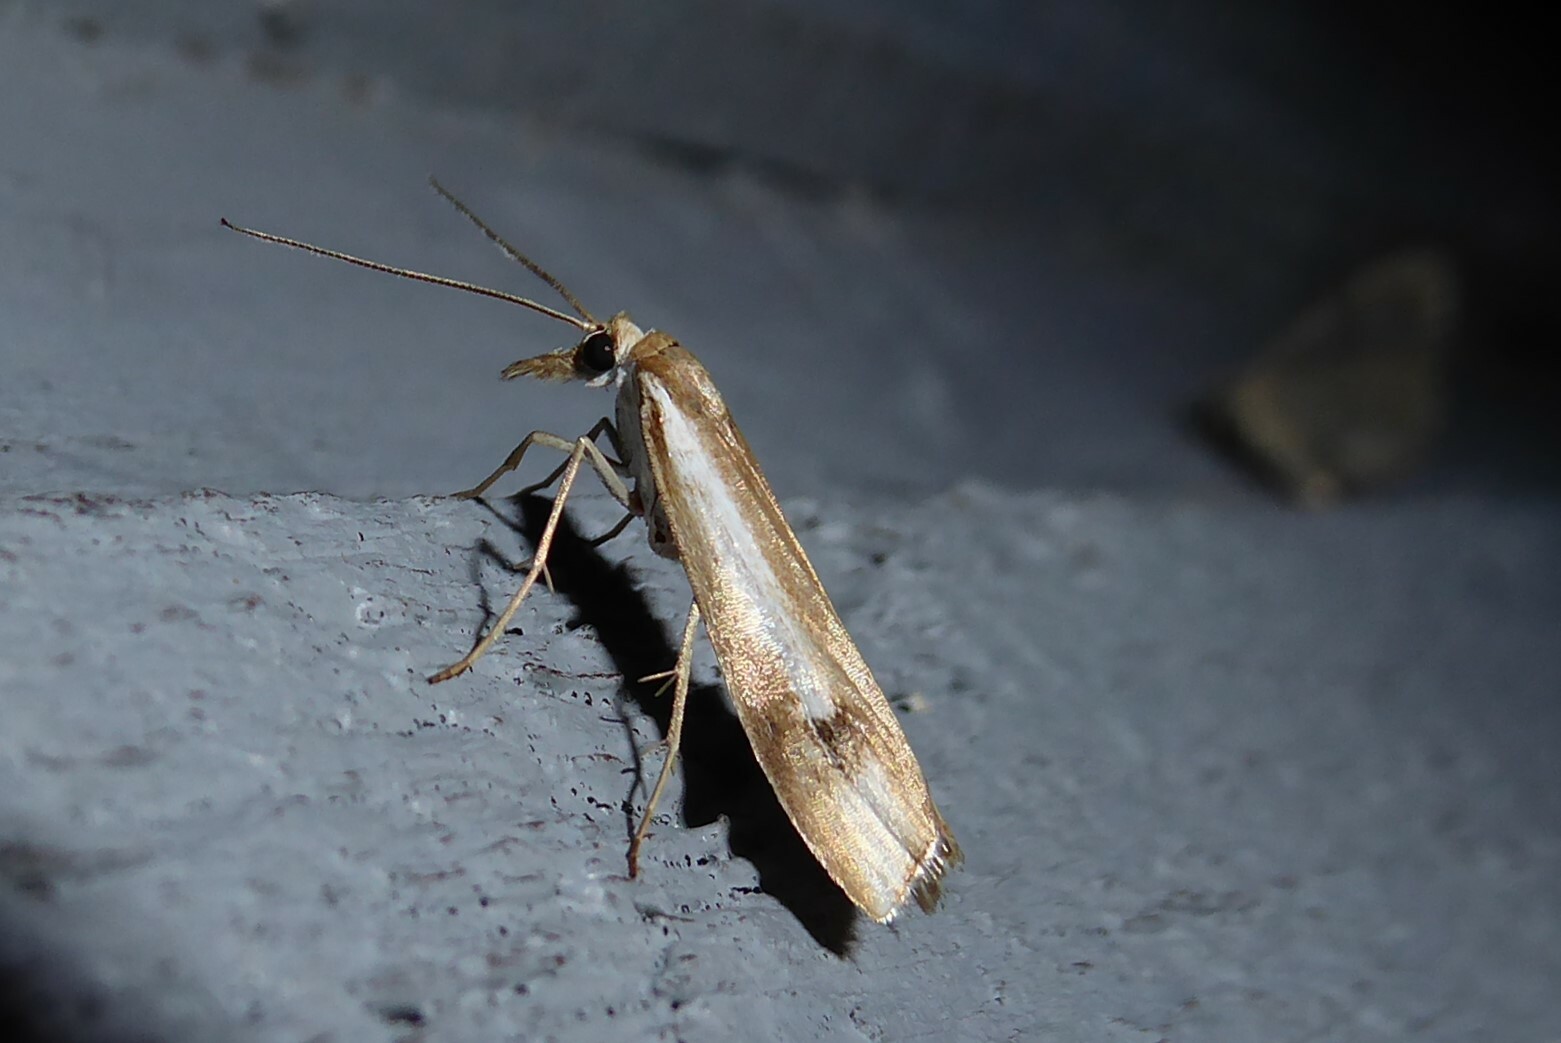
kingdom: Animalia
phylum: Arthropoda
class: Insecta
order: Lepidoptera
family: Crambidae
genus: Orocrambus
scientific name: Orocrambus vulgaris
